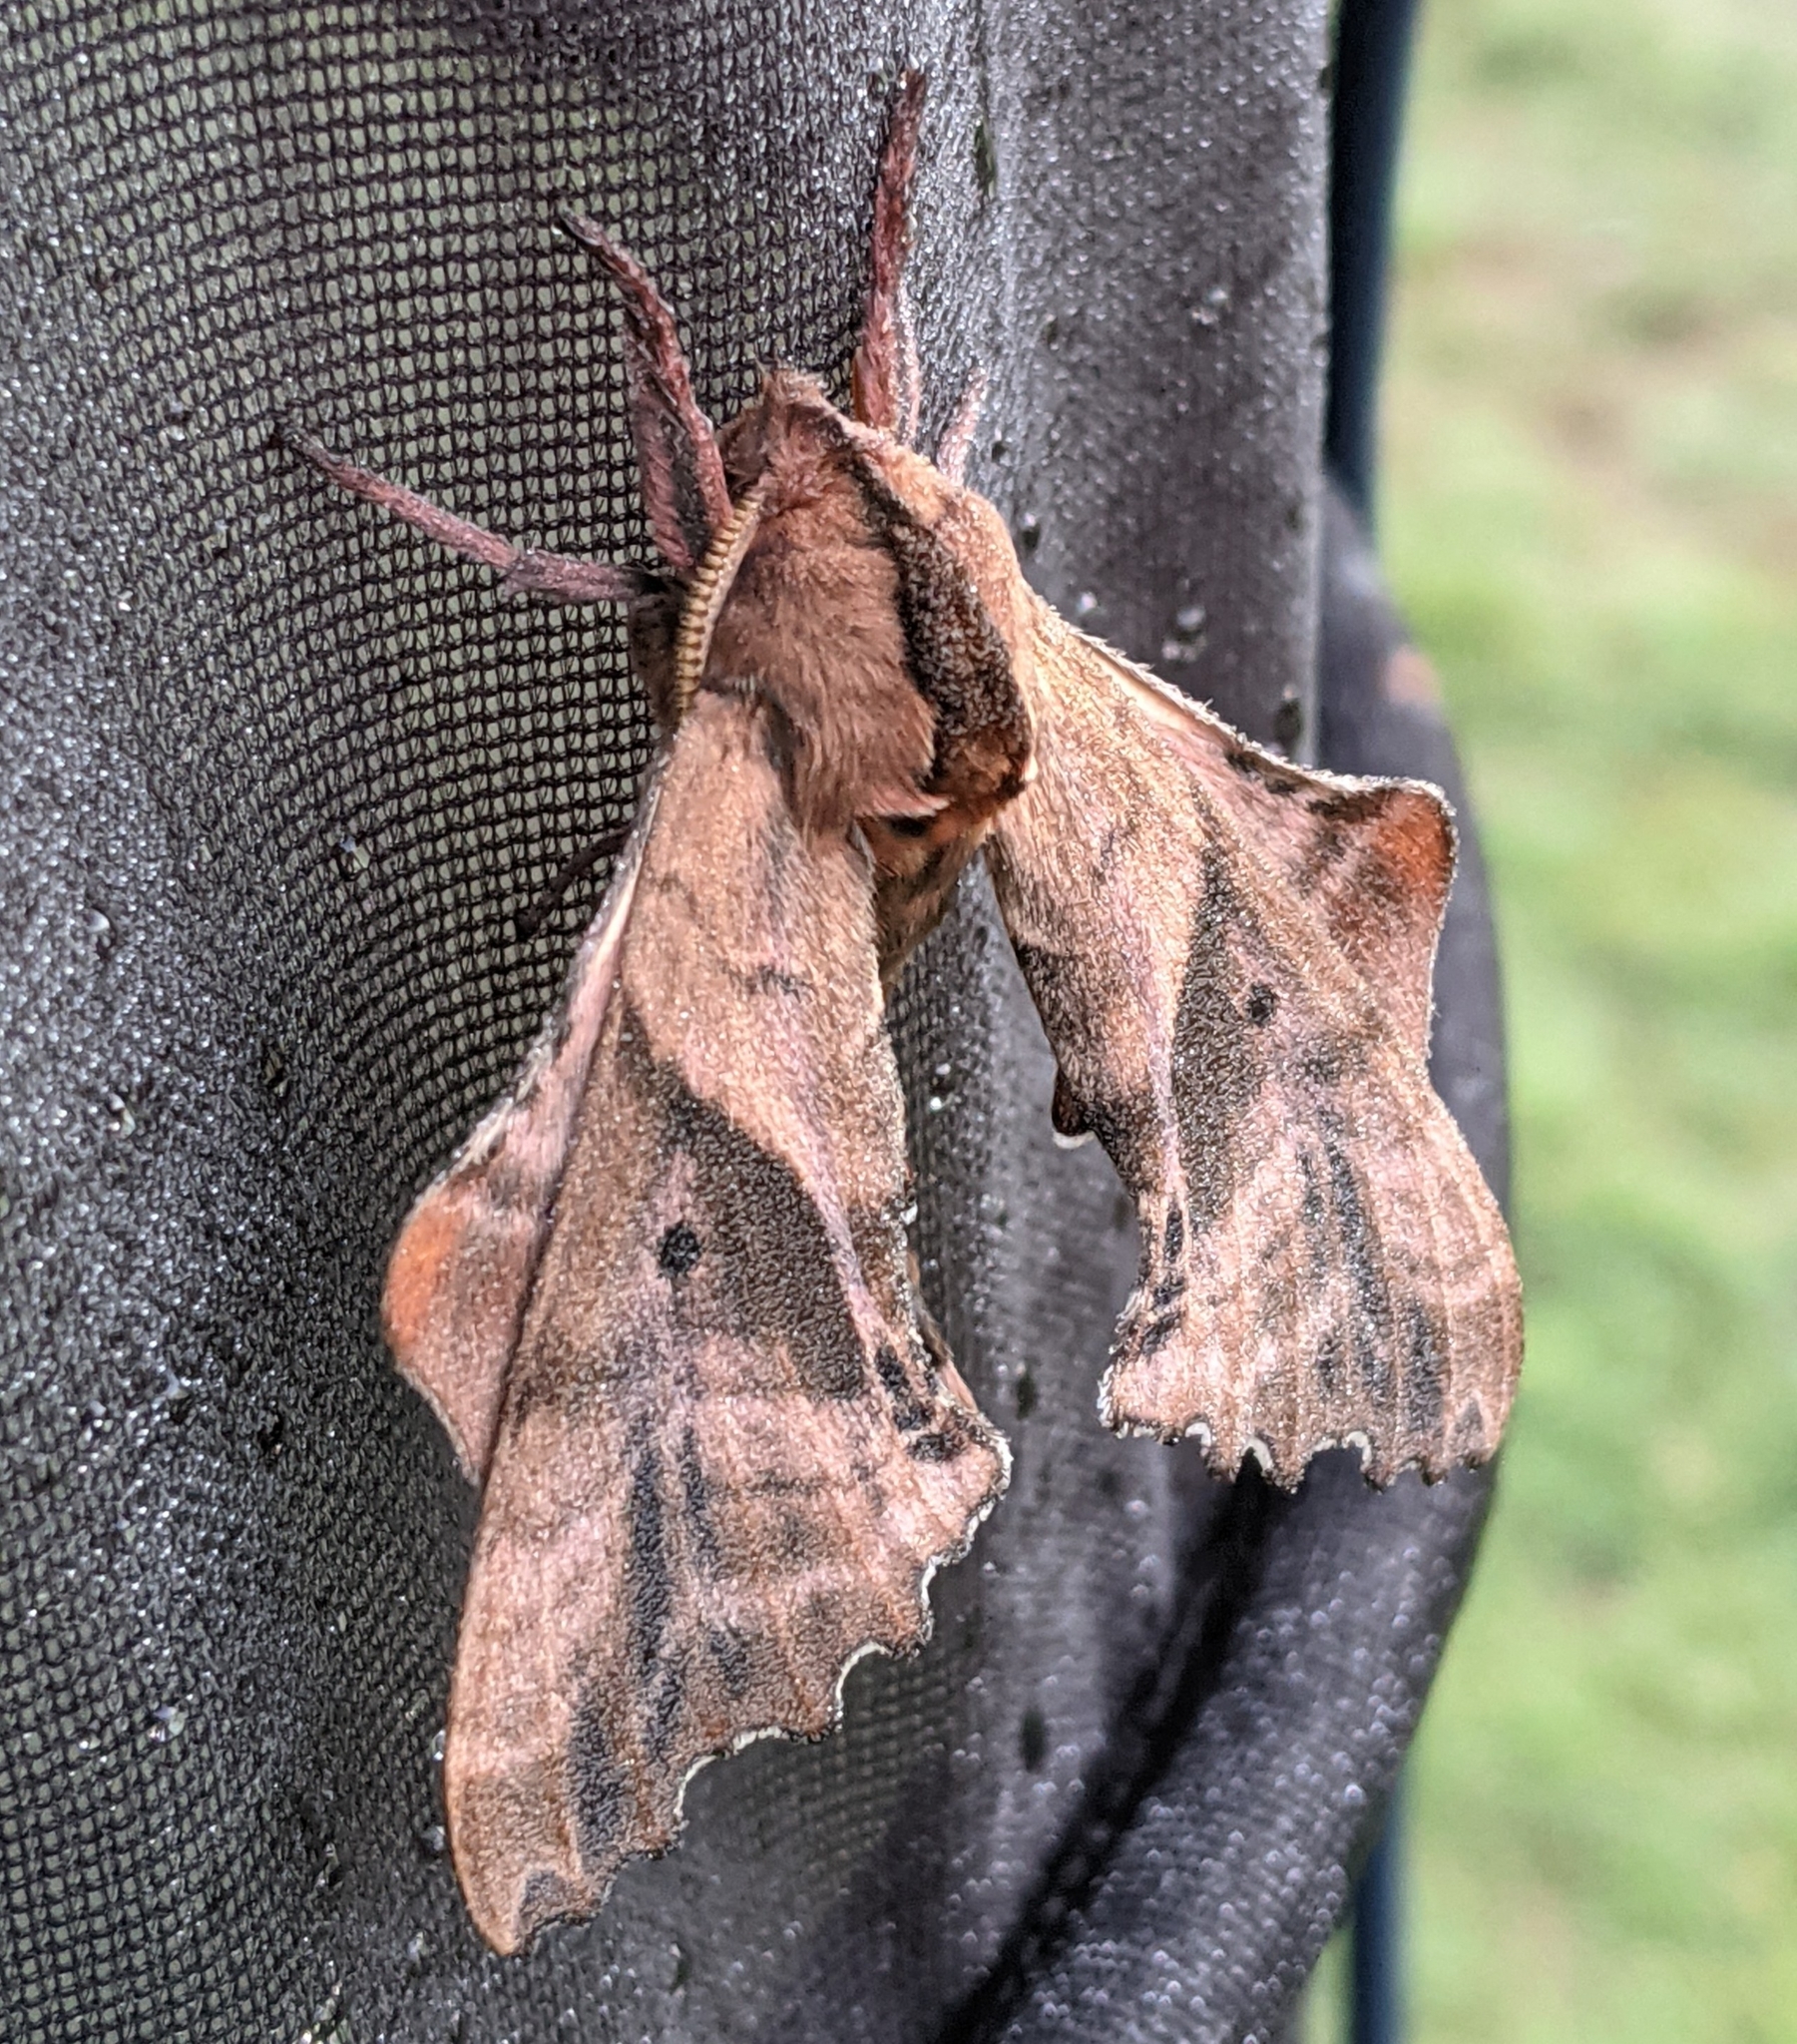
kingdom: Animalia
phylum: Arthropoda
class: Insecta
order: Lepidoptera
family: Sphingidae
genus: Paonias
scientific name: Paonias excaecata
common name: Blind-eyed sphinx
